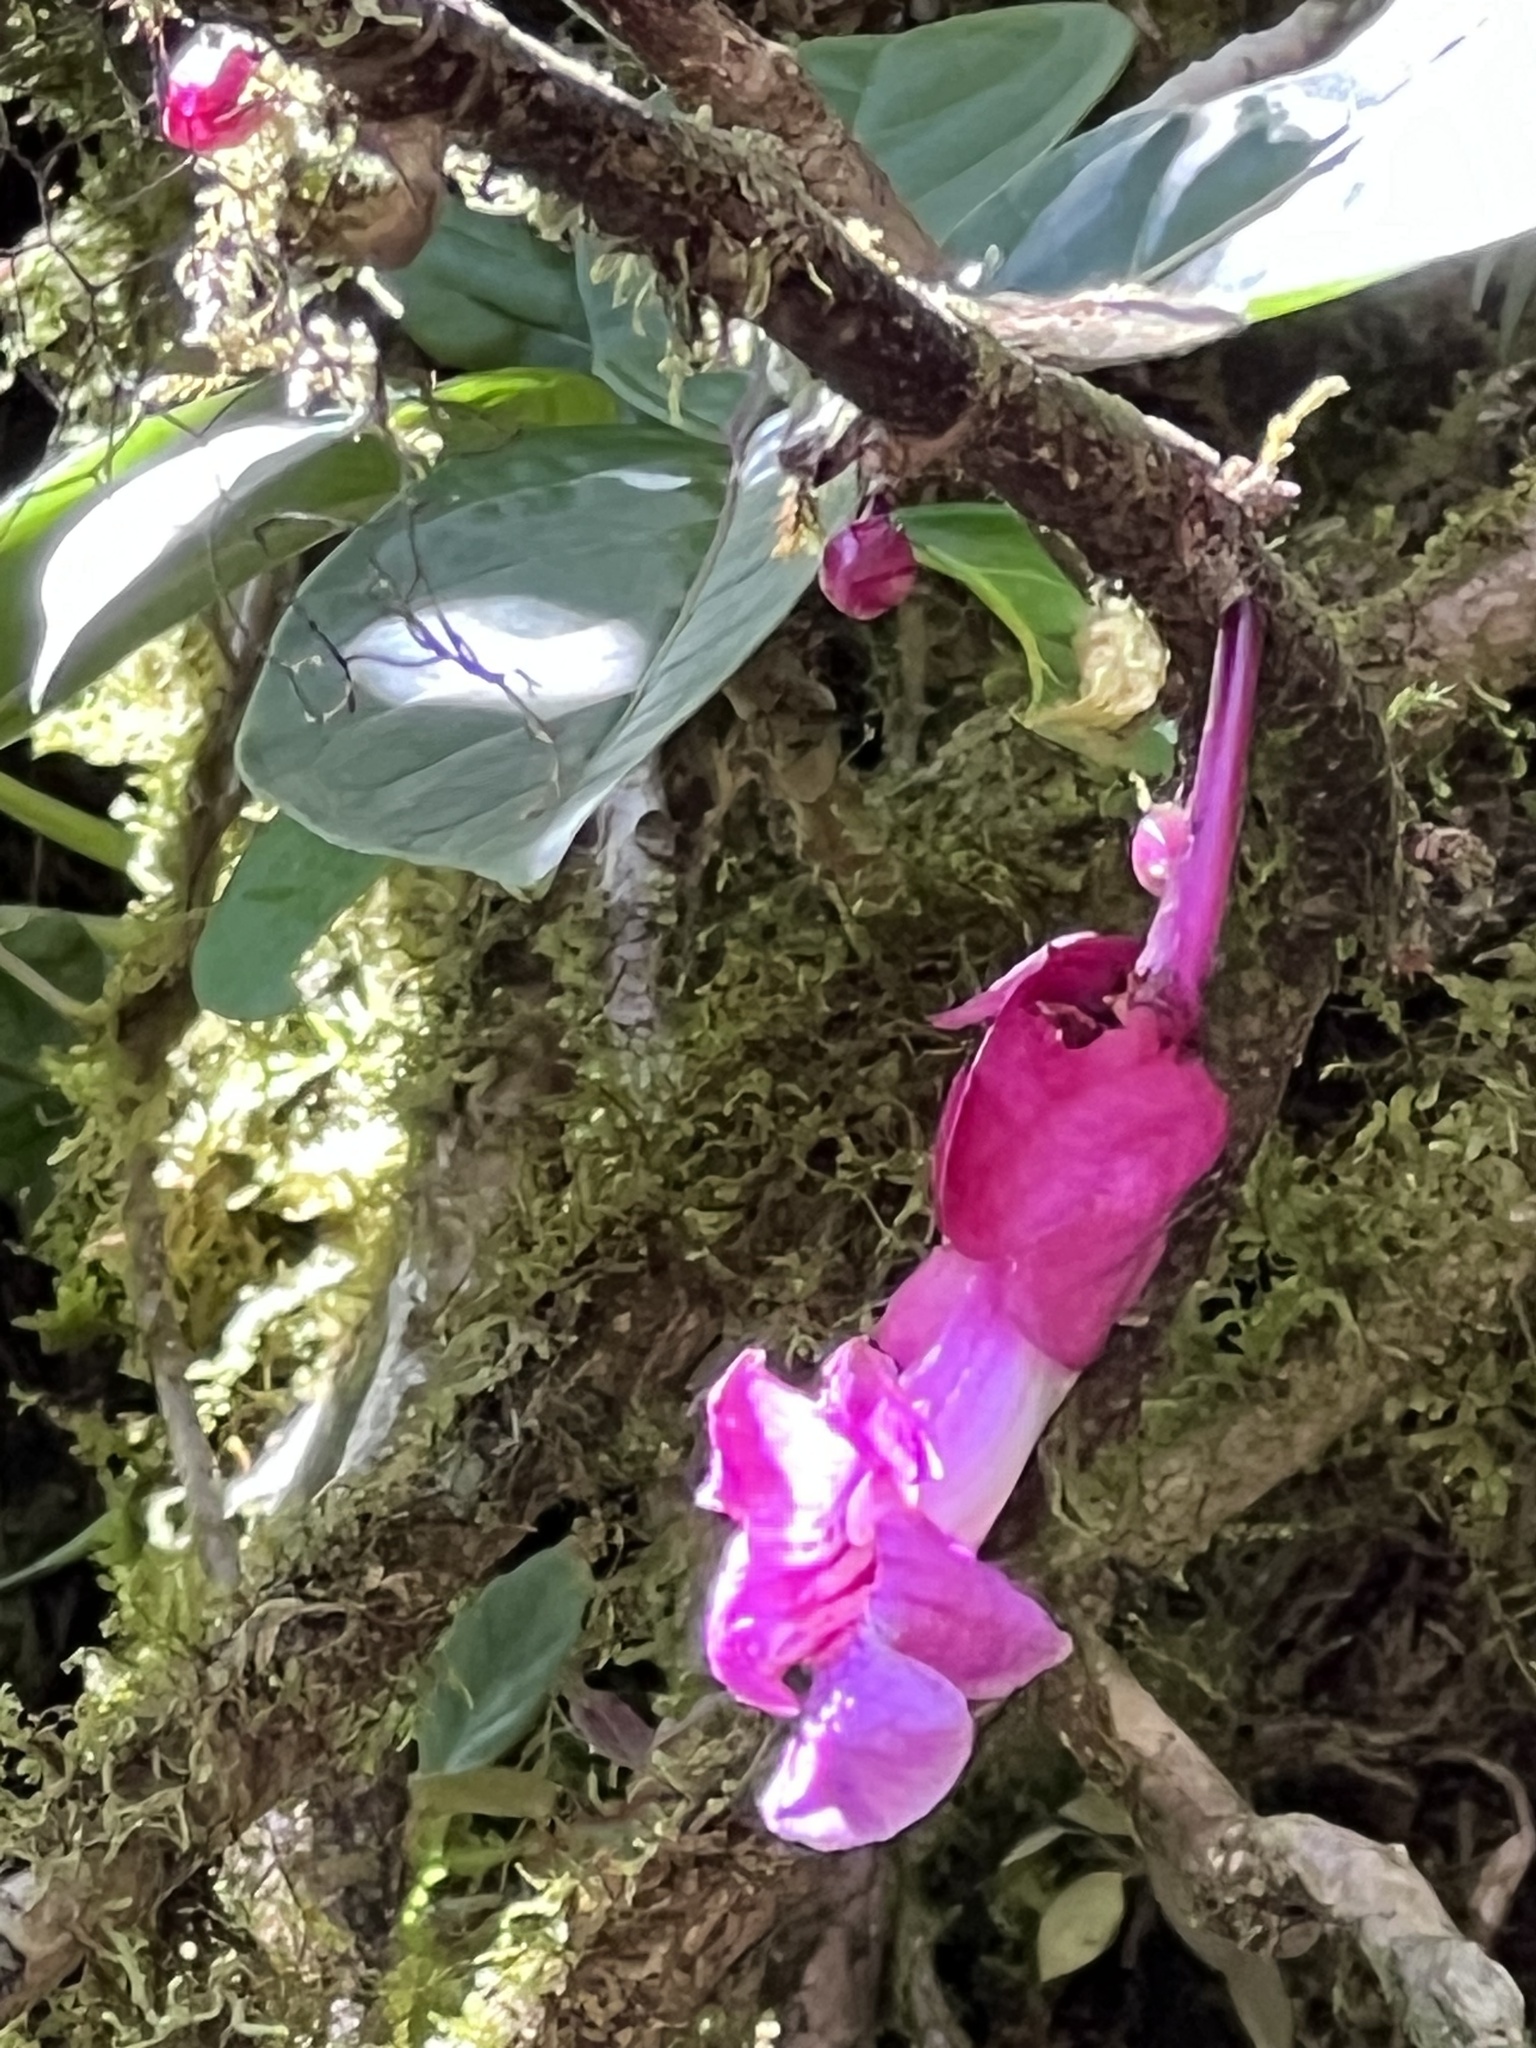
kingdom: Plantae
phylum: Tracheophyta
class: Magnoliopsida
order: Lamiales
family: Gesneriaceae
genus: Drymonia
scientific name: Drymonia conchocalyx
